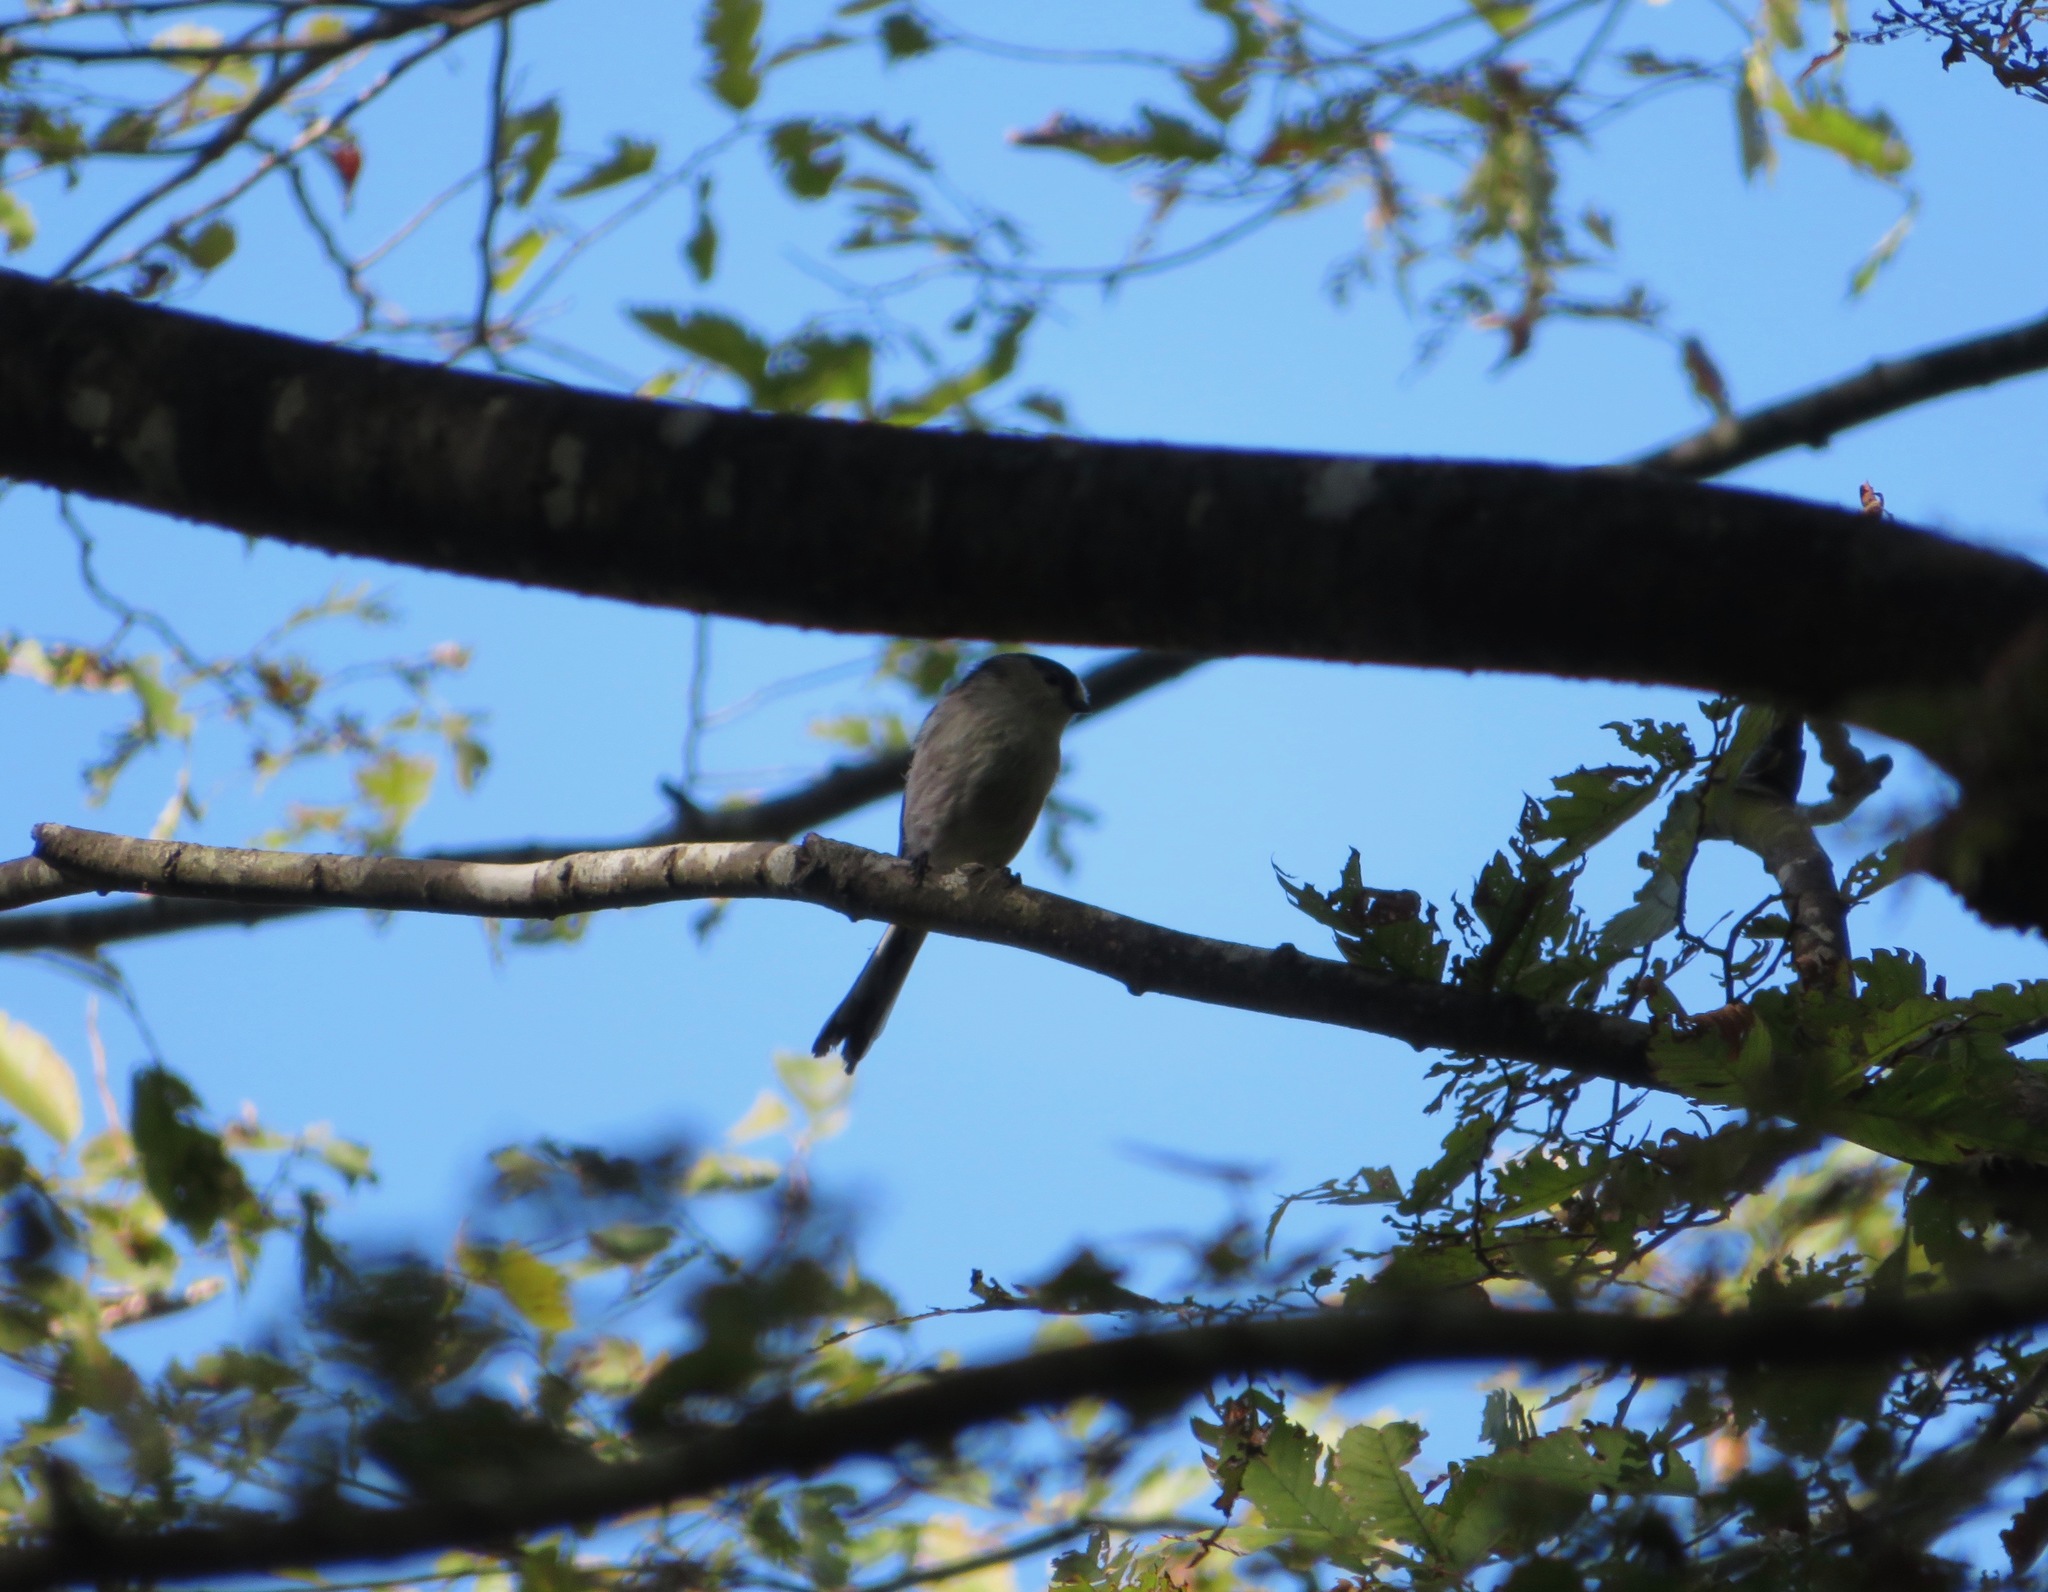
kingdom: Animalia
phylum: Chordata
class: Aves
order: Passeriformes
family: Aegithalidae
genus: Aegithalos
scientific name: Aegithalos caudatus
